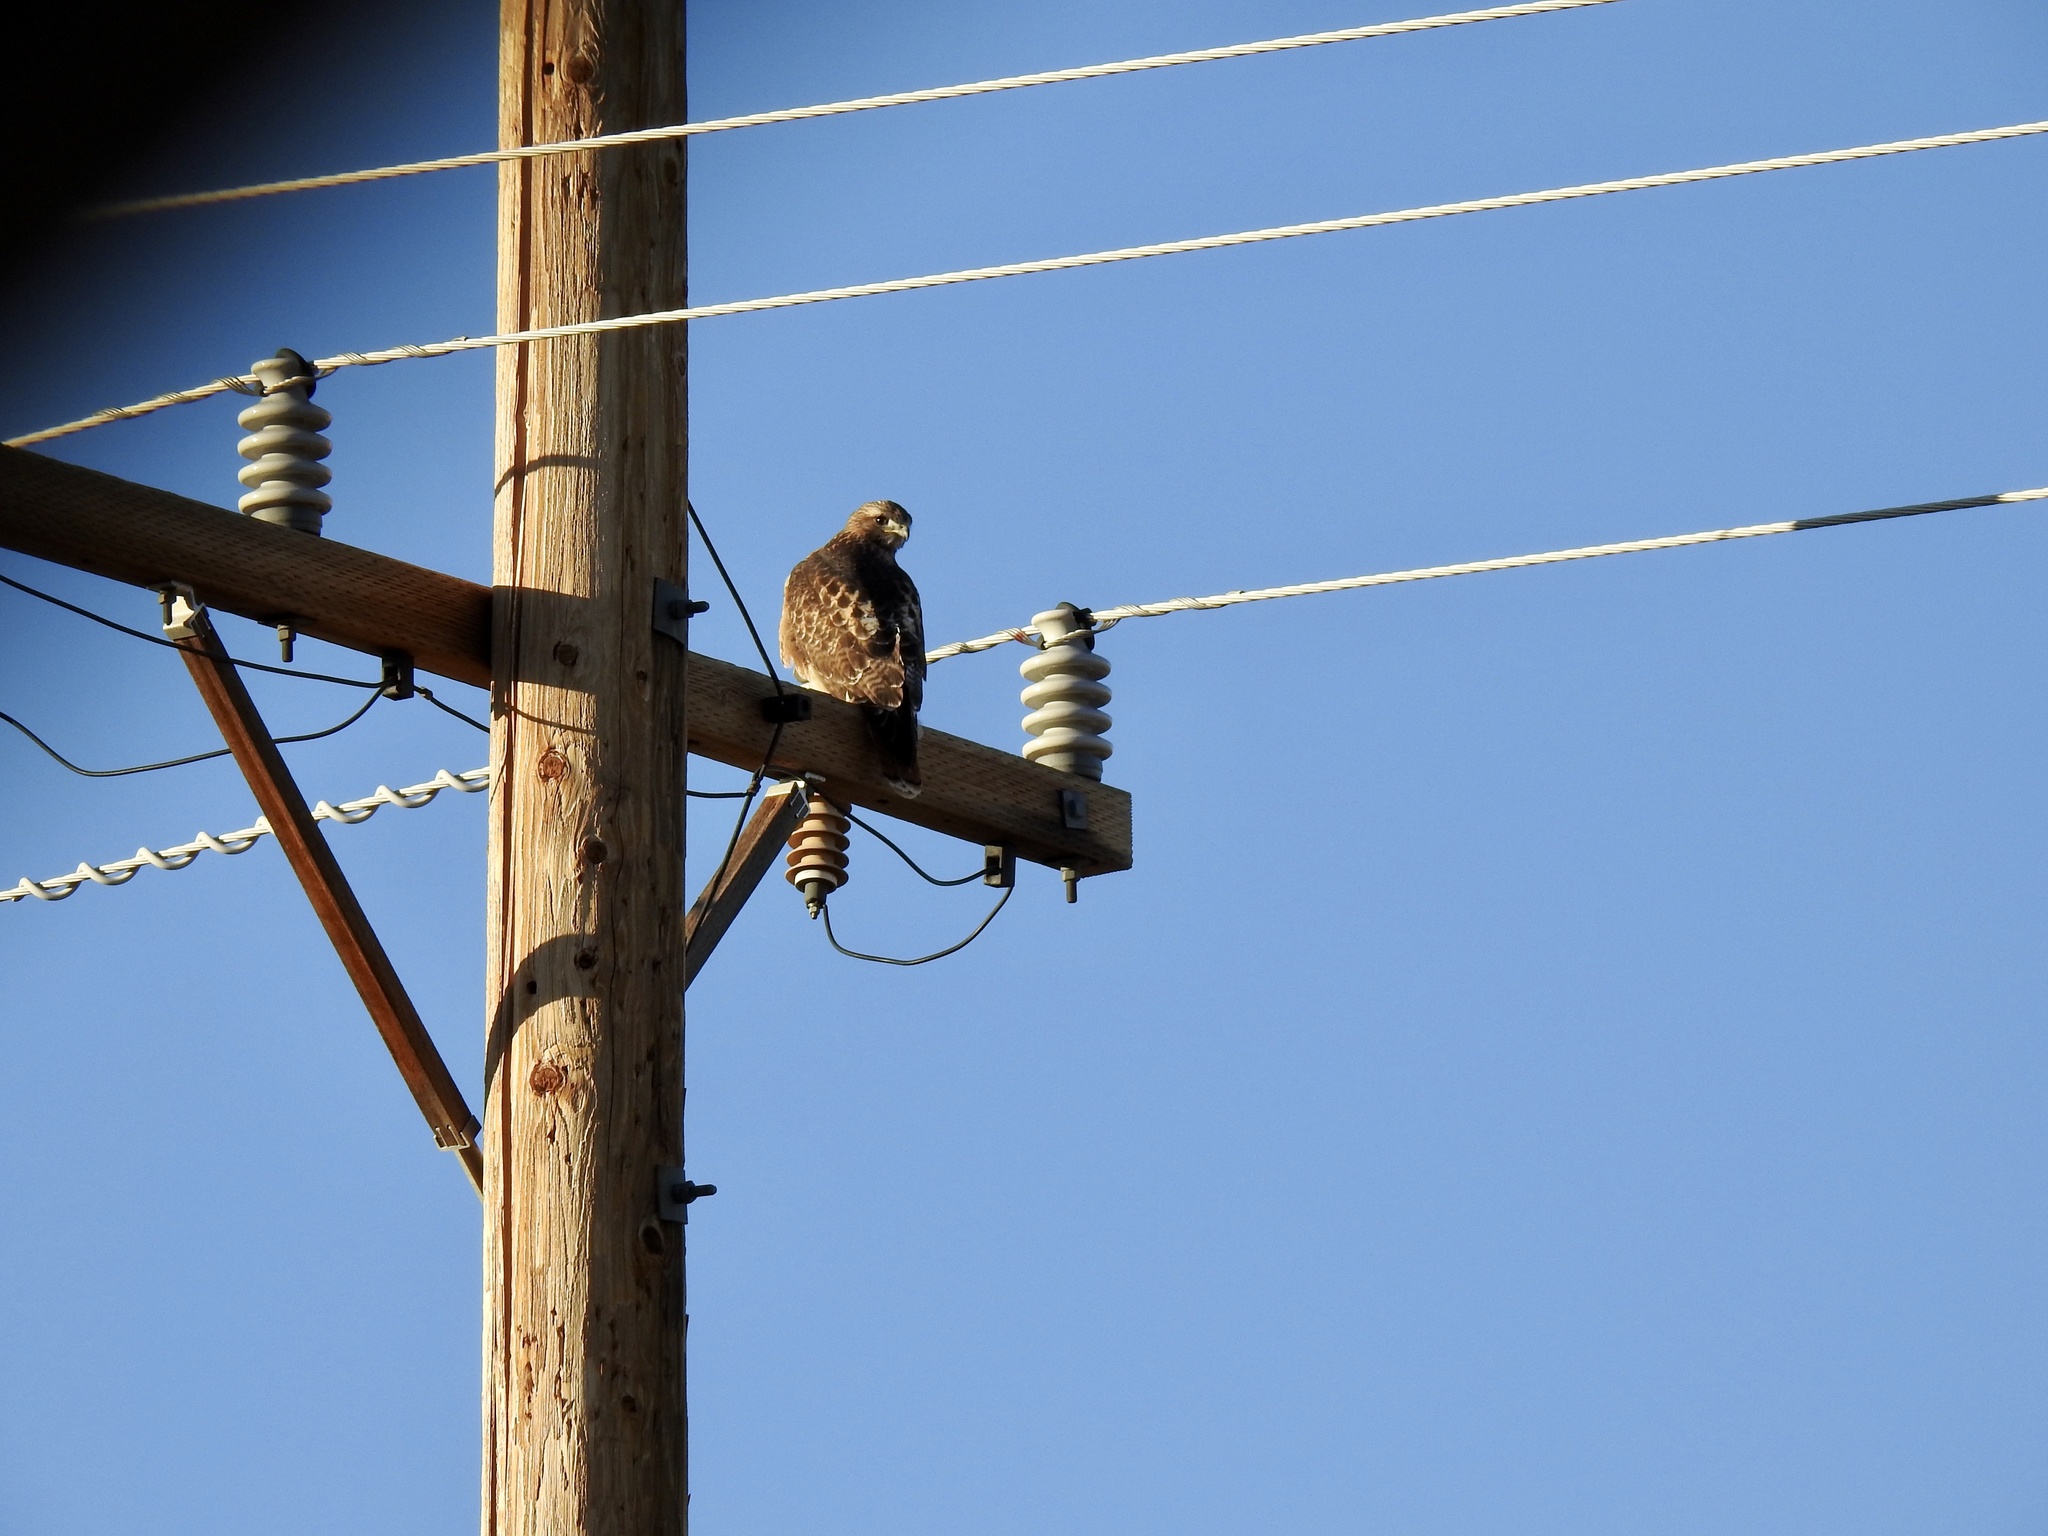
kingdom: Animalia
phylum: Chordata
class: Aves
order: Accipitriformes
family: Accipitridae
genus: Buteo
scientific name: Buteo jamaicensis
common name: Red-tailed hawk
